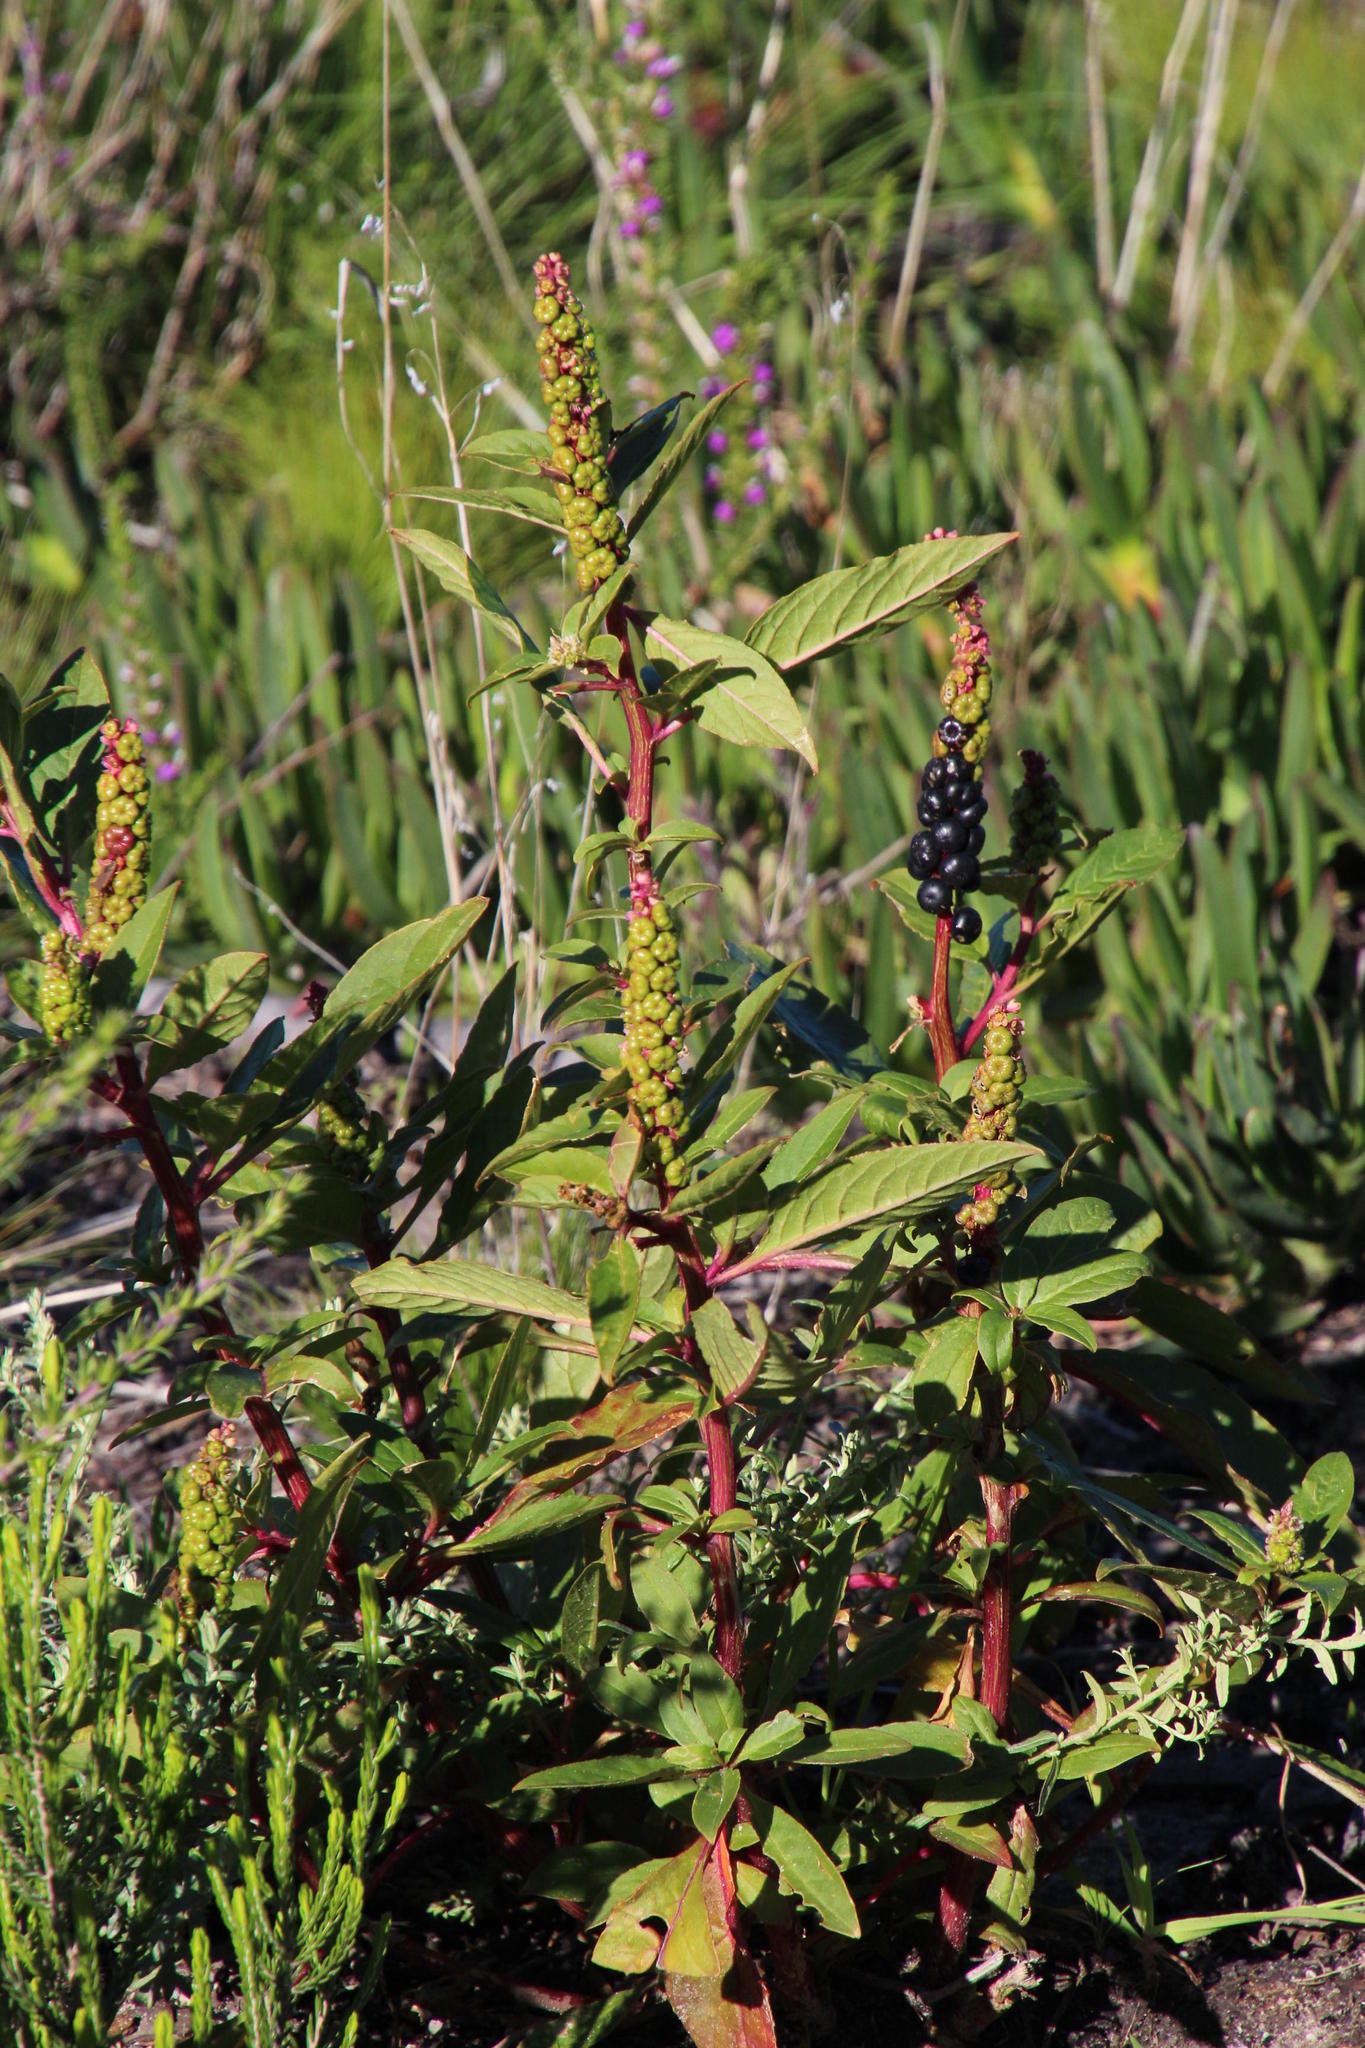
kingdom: Animalia
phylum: Chordata
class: Mammalia
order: Rodentia
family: Hystricidae
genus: Hystrix
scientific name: Hystrix africaeaustralis
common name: Cape porcupine
